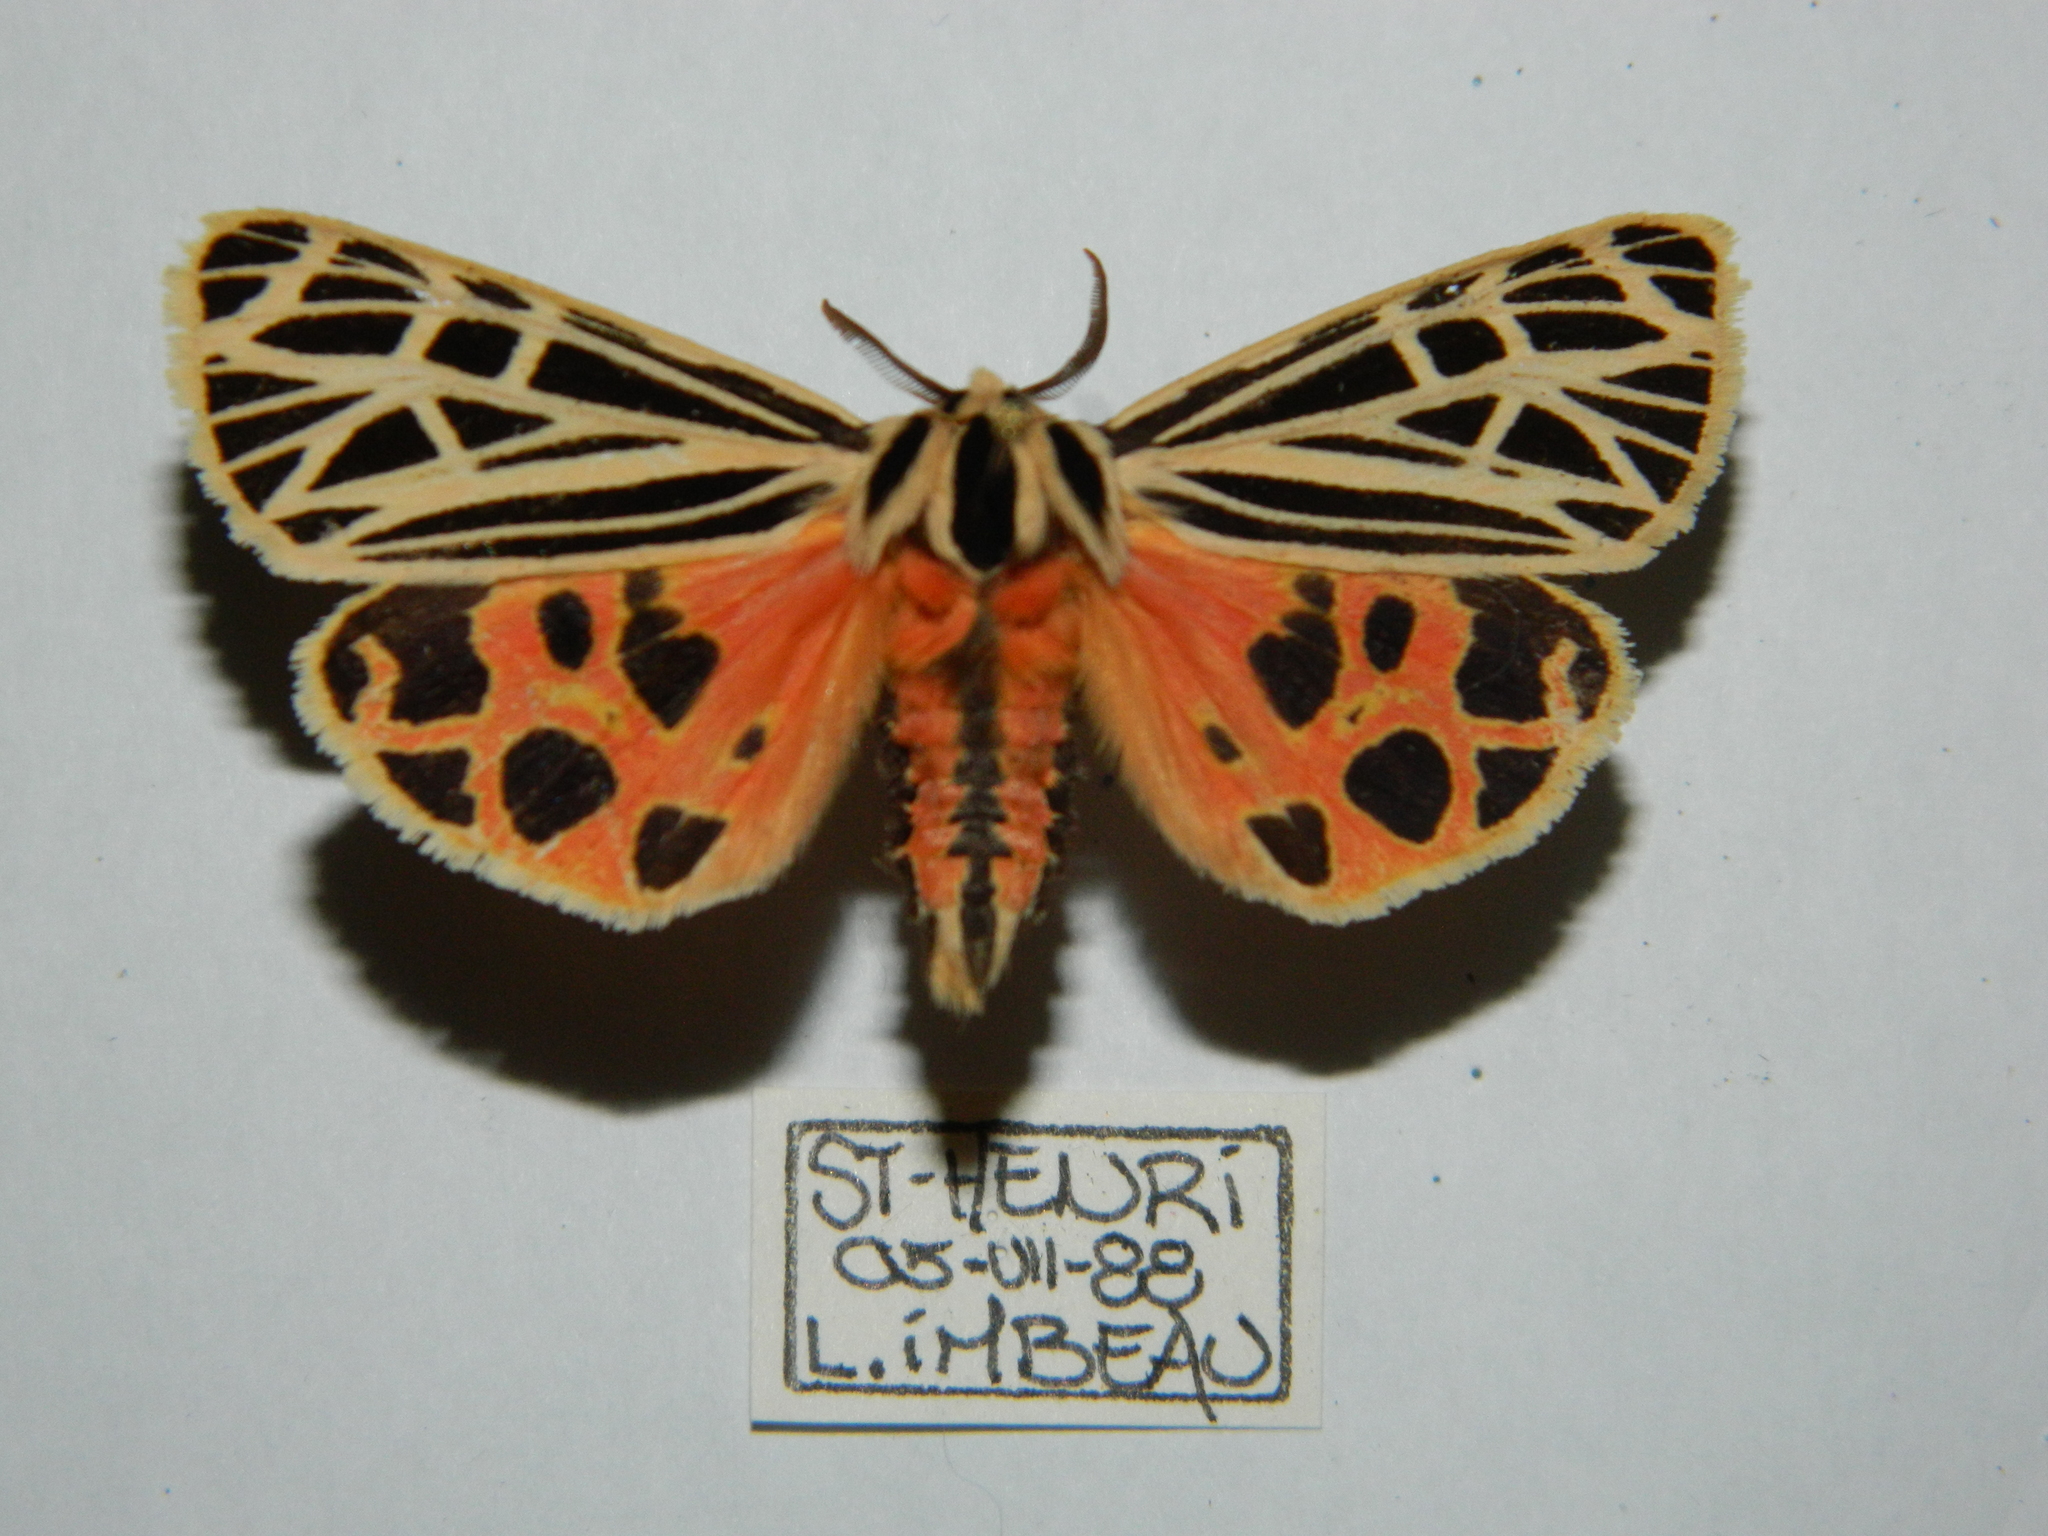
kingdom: Animalia
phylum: Arthropoda
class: Insecta
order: Lepidoptera
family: Erebidae
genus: Grammia
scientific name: Grammia virgo
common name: Virgin tiger moth
